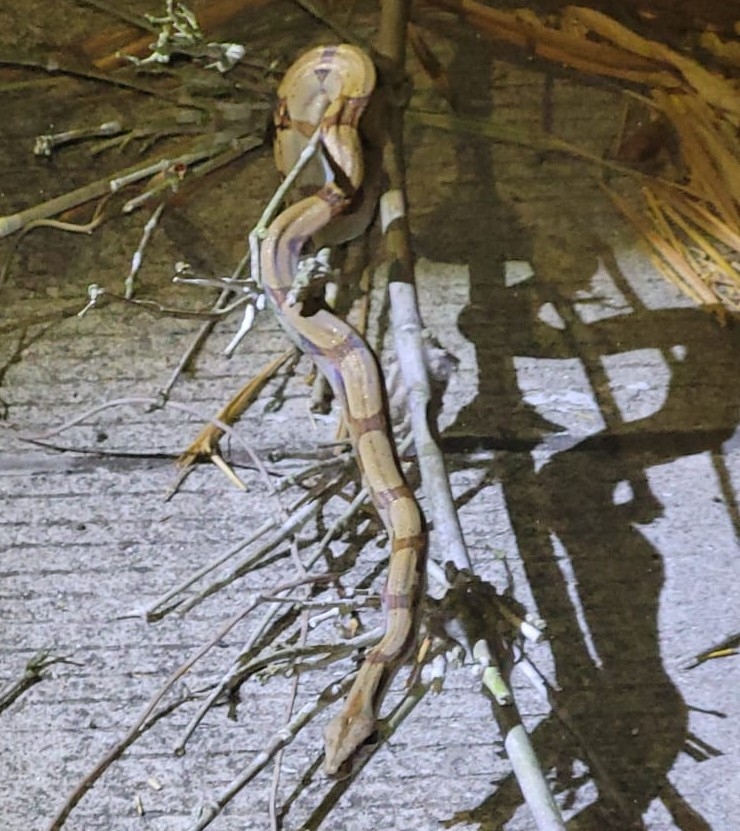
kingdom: Animalia
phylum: Chordata
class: Squamata
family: Boidae
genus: Boa
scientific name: Boa imperator
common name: Central american boa
